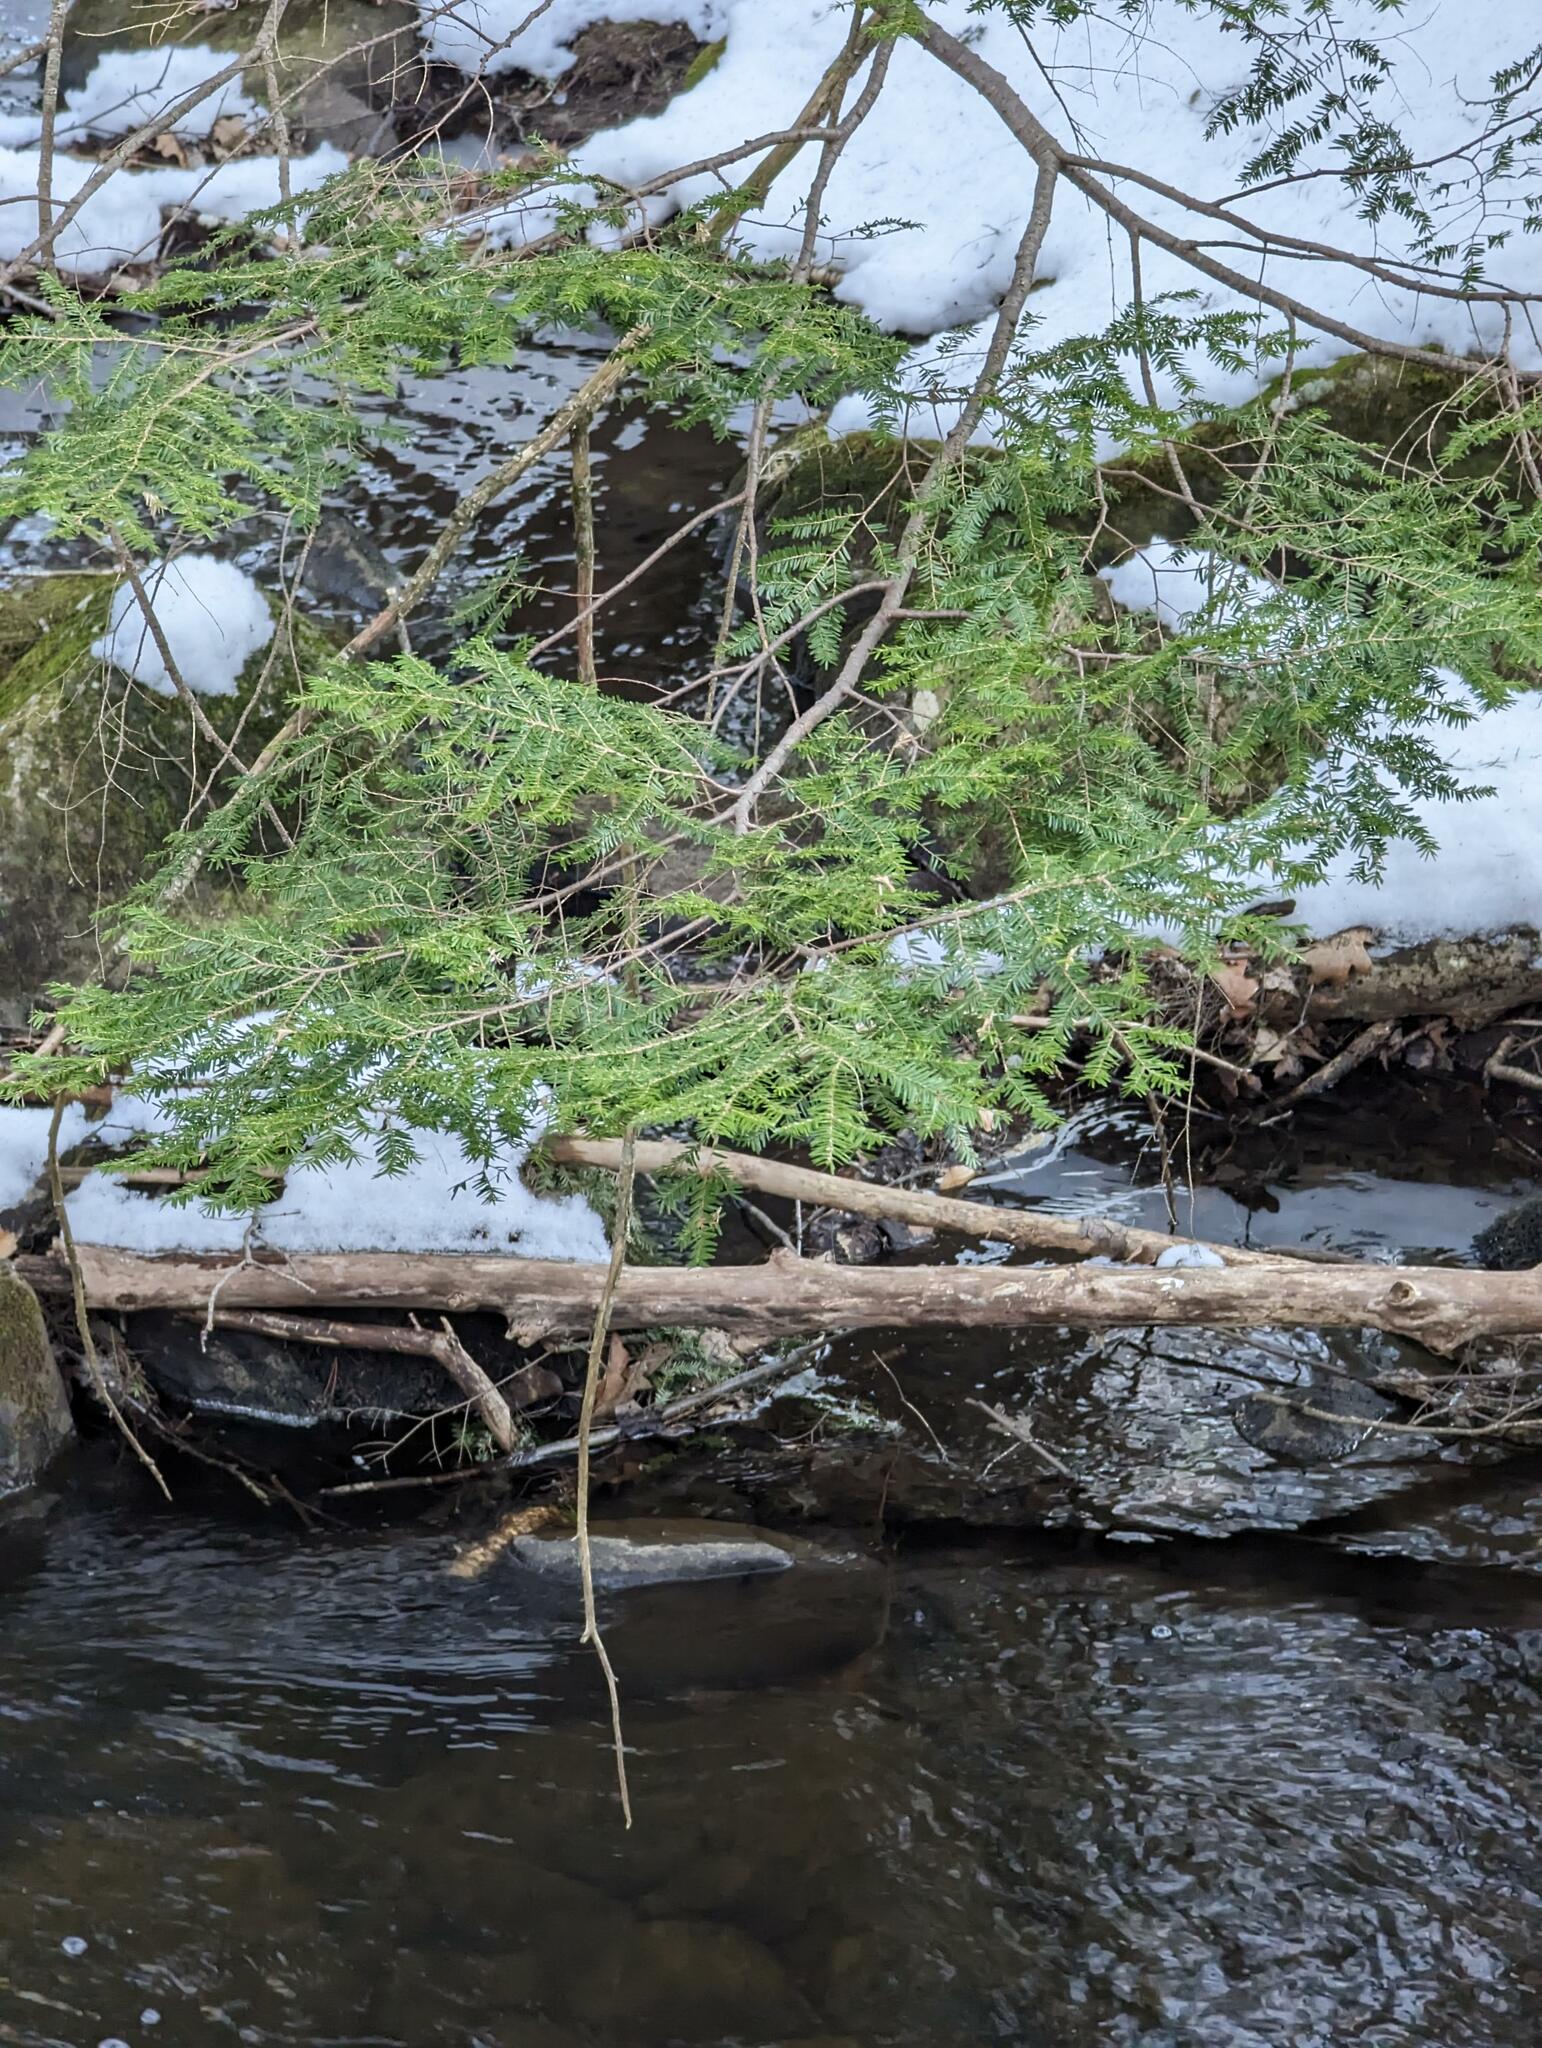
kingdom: Plantae
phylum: Tracheophyta
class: Pinopsida
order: Pinales
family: Pinaceae
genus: Tsuga
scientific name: Tsuga canadensis
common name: Eastern hemlock
